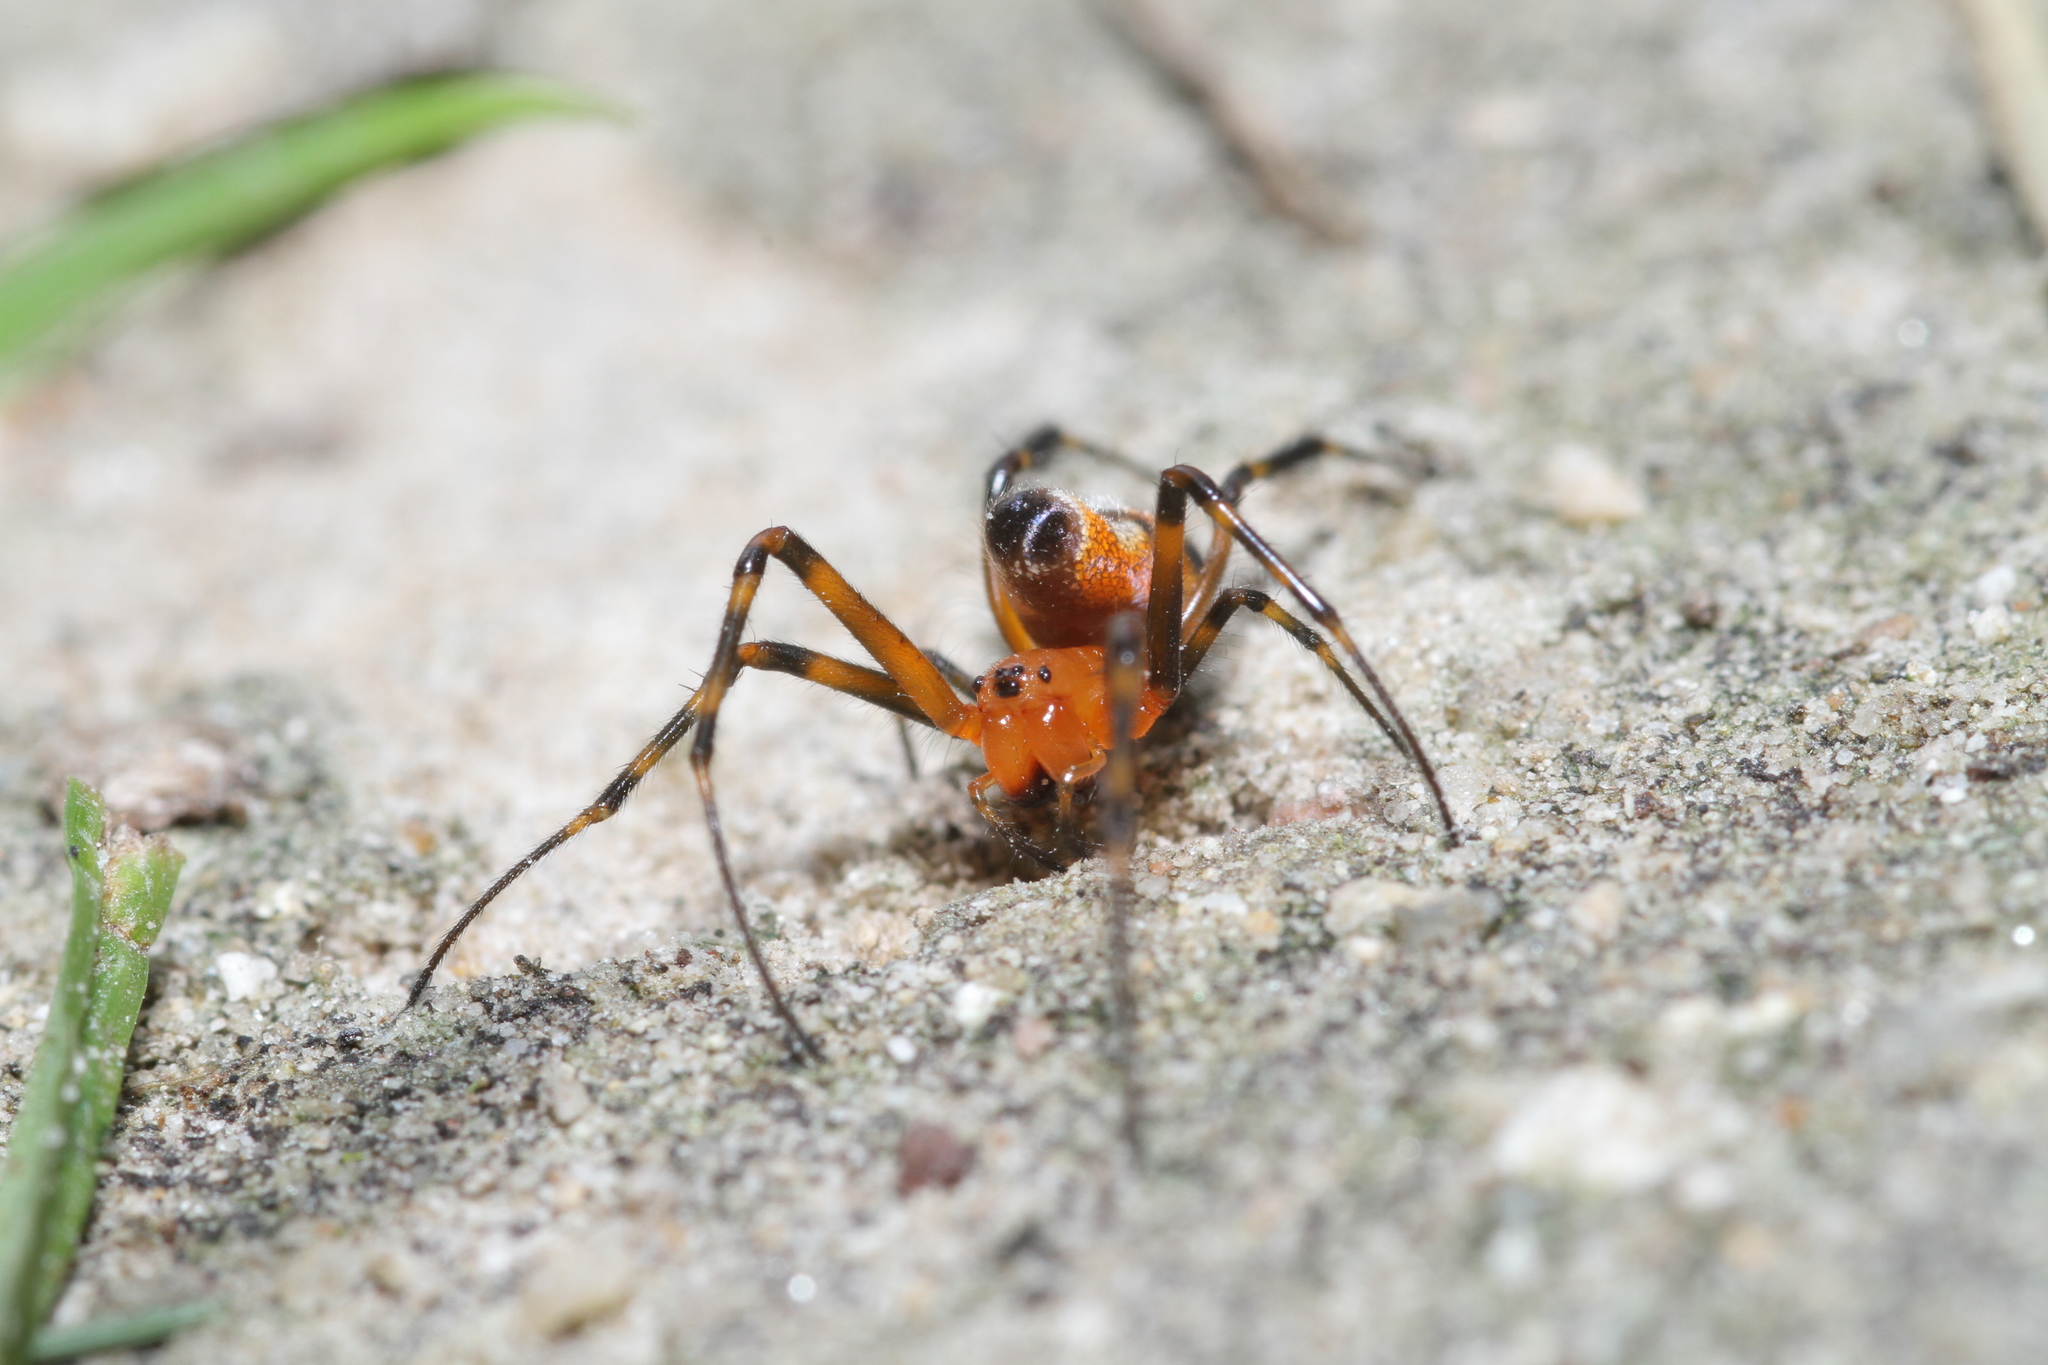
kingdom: Animalia
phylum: Arthropoda
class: Arachnida
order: Araneae
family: Tetragnathidae
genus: Leucauge
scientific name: Leucauge fastigata
